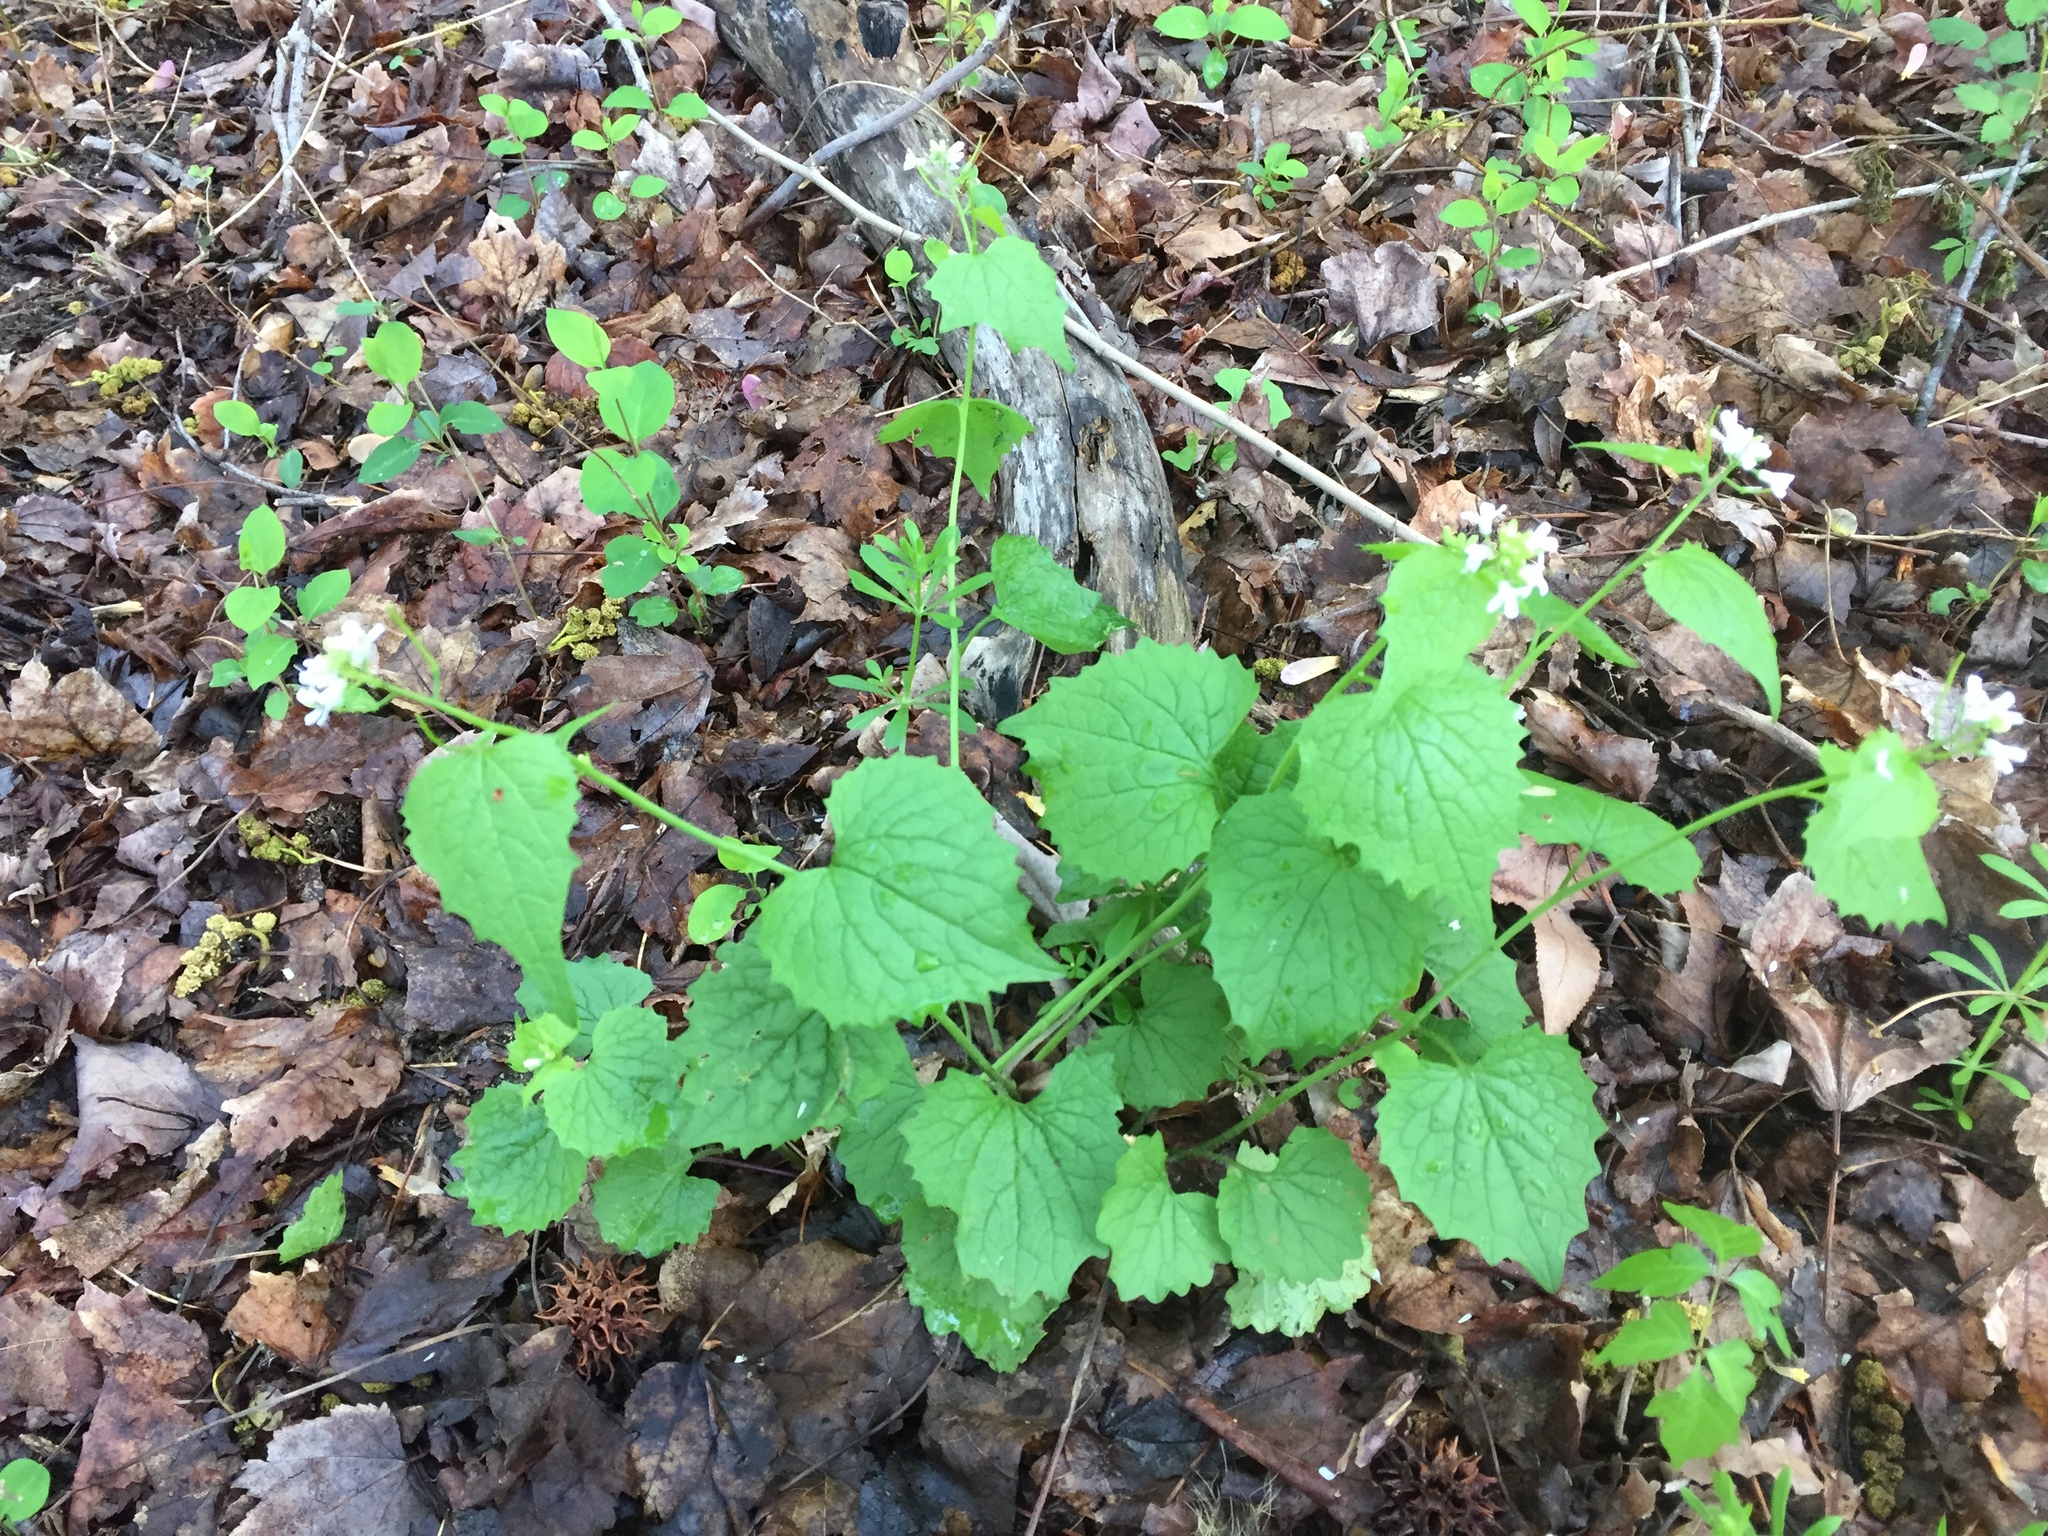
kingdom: Plantae
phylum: Tracheophyta
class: Magnoliopsida
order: Brassicales
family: Brassicaceae
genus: Alliaria
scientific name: Alliaria petiolata
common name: Garlic mustard
